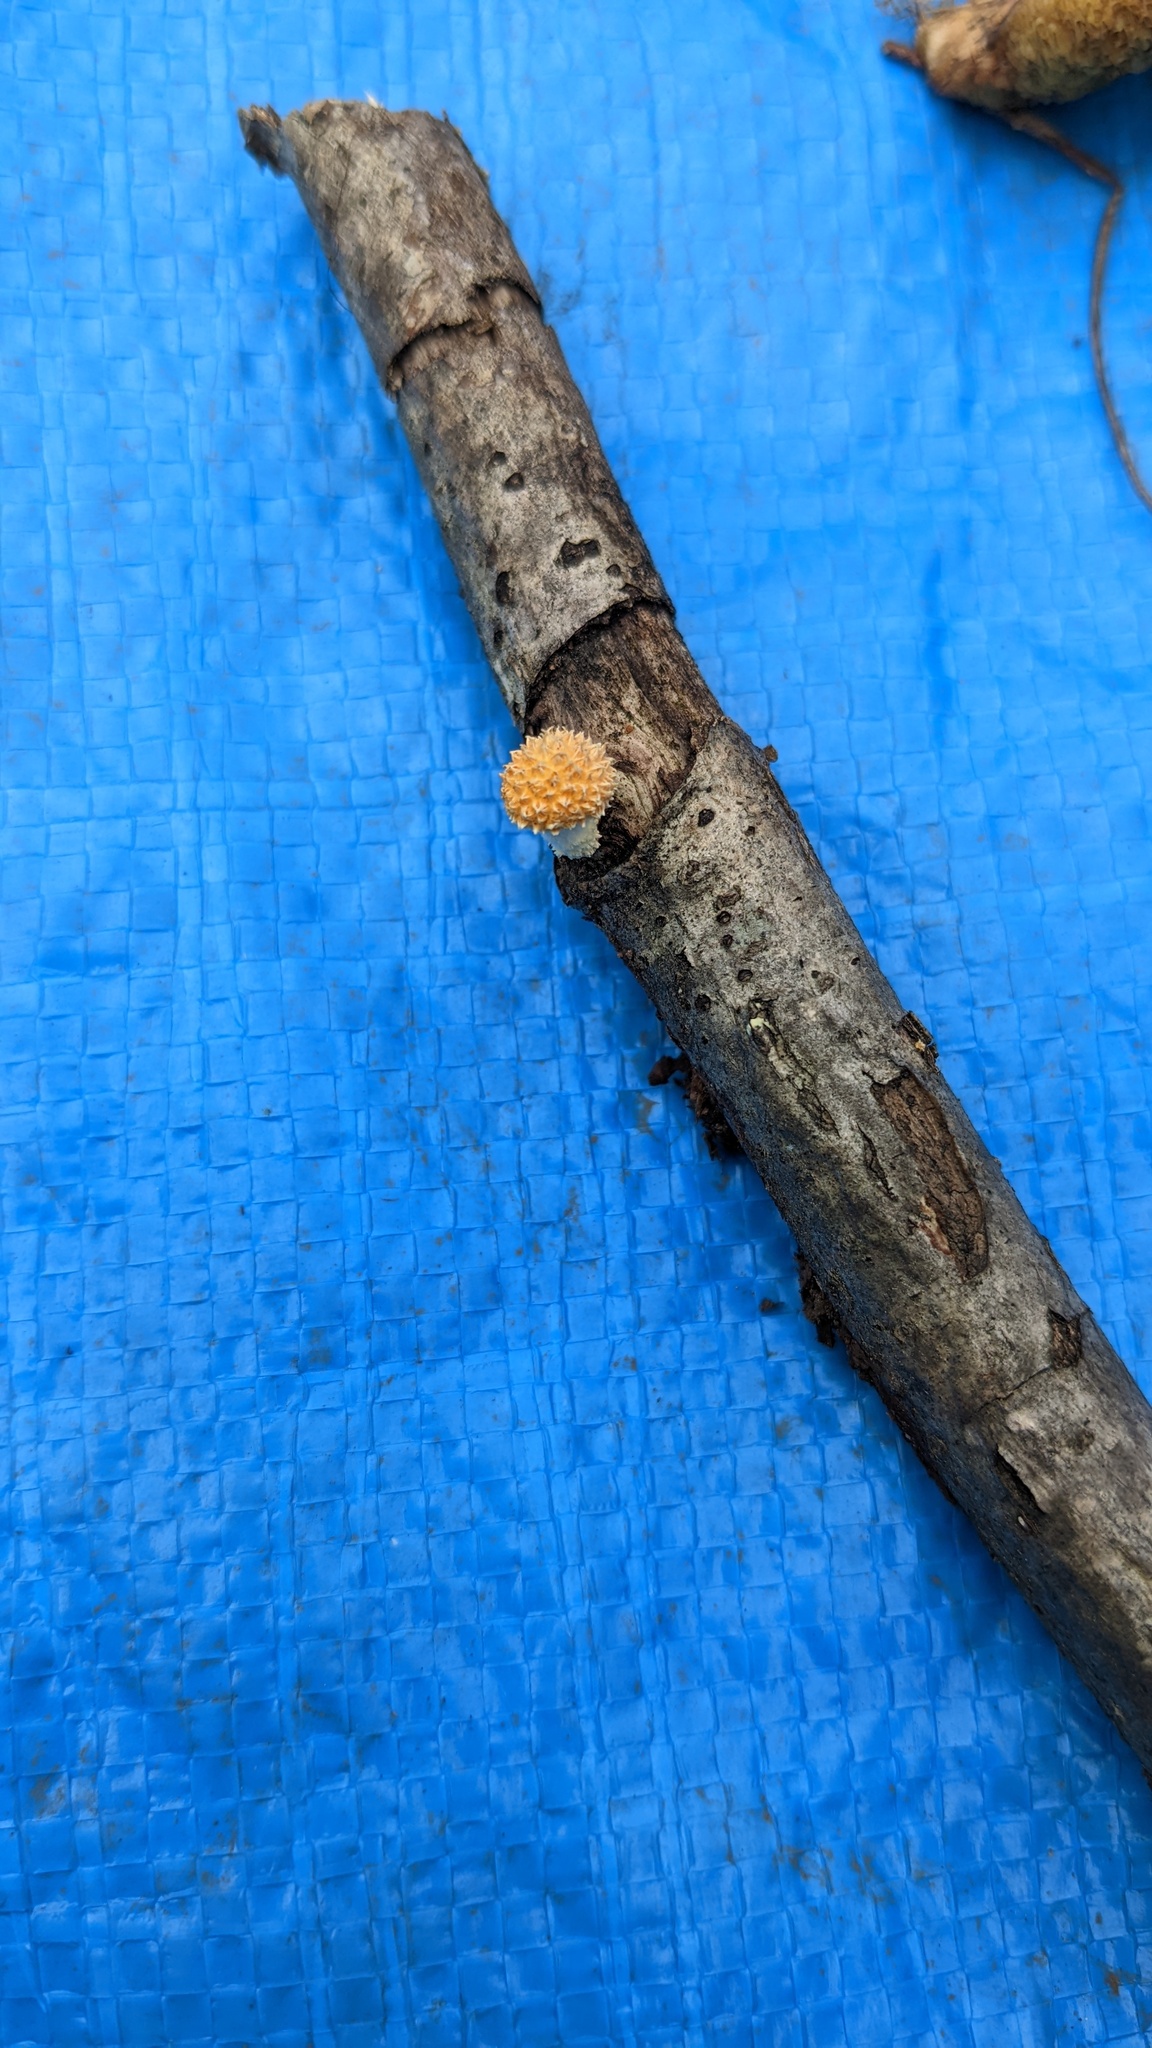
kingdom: Fungi
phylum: Basidiomycota
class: Agaricomycetes
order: Agaricales
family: Physalacriaceae
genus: Cyptotrama
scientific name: Cyptotrama asprata
